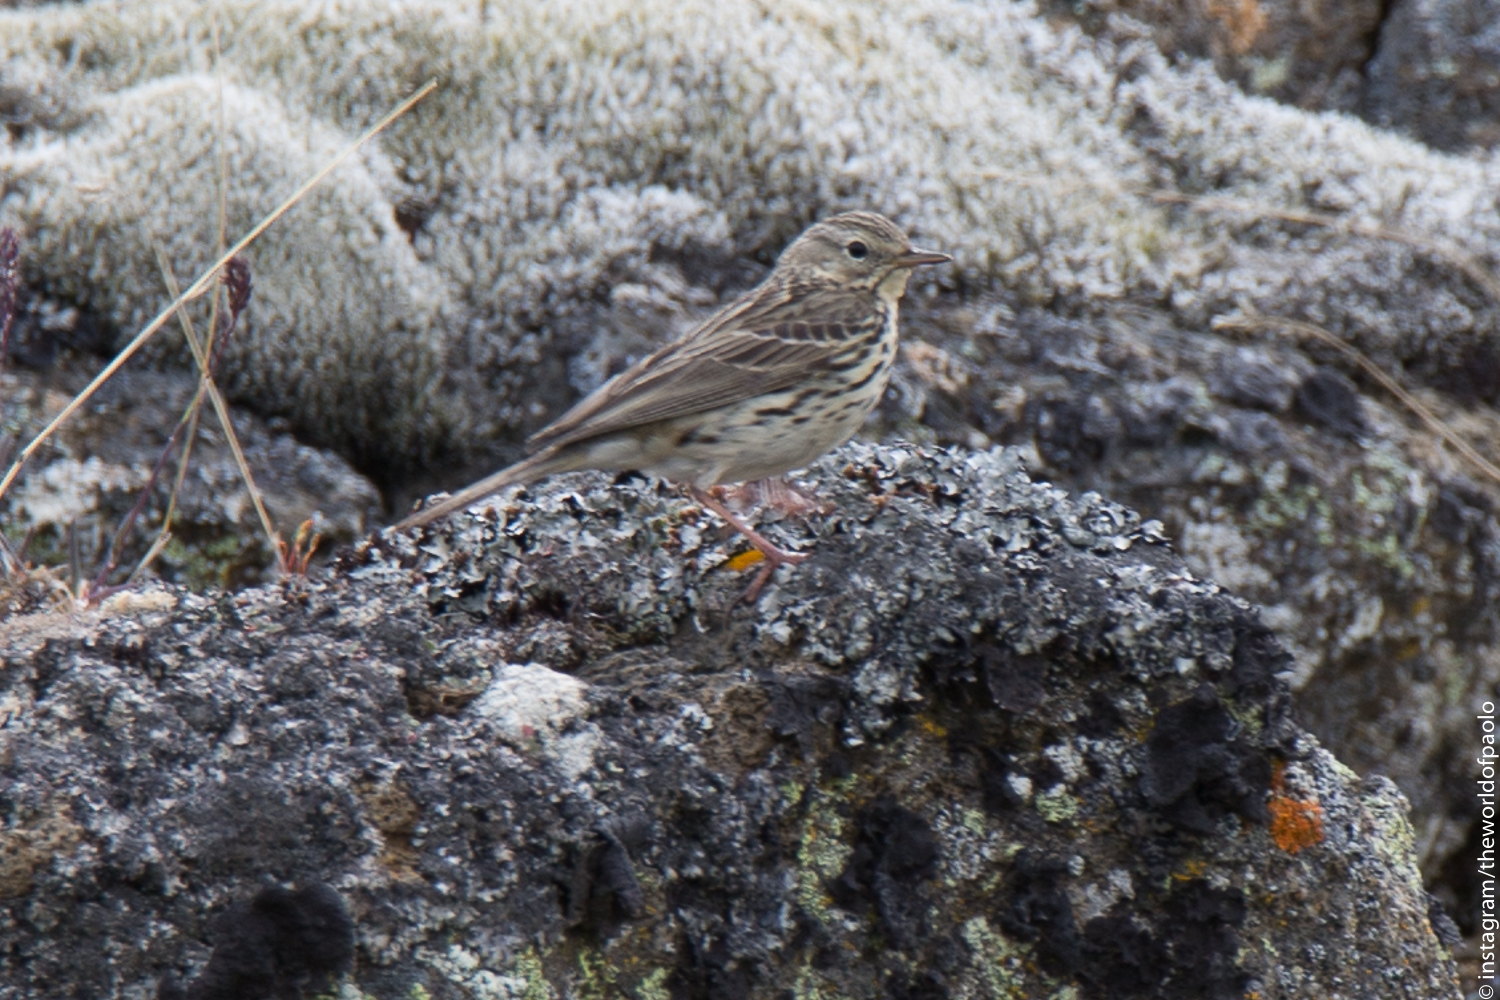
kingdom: Animalia
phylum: Chordata
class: Aves
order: Passeriformes
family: Motacillidae
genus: Anthus
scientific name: Anthus pratensis
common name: Meadow pipit
